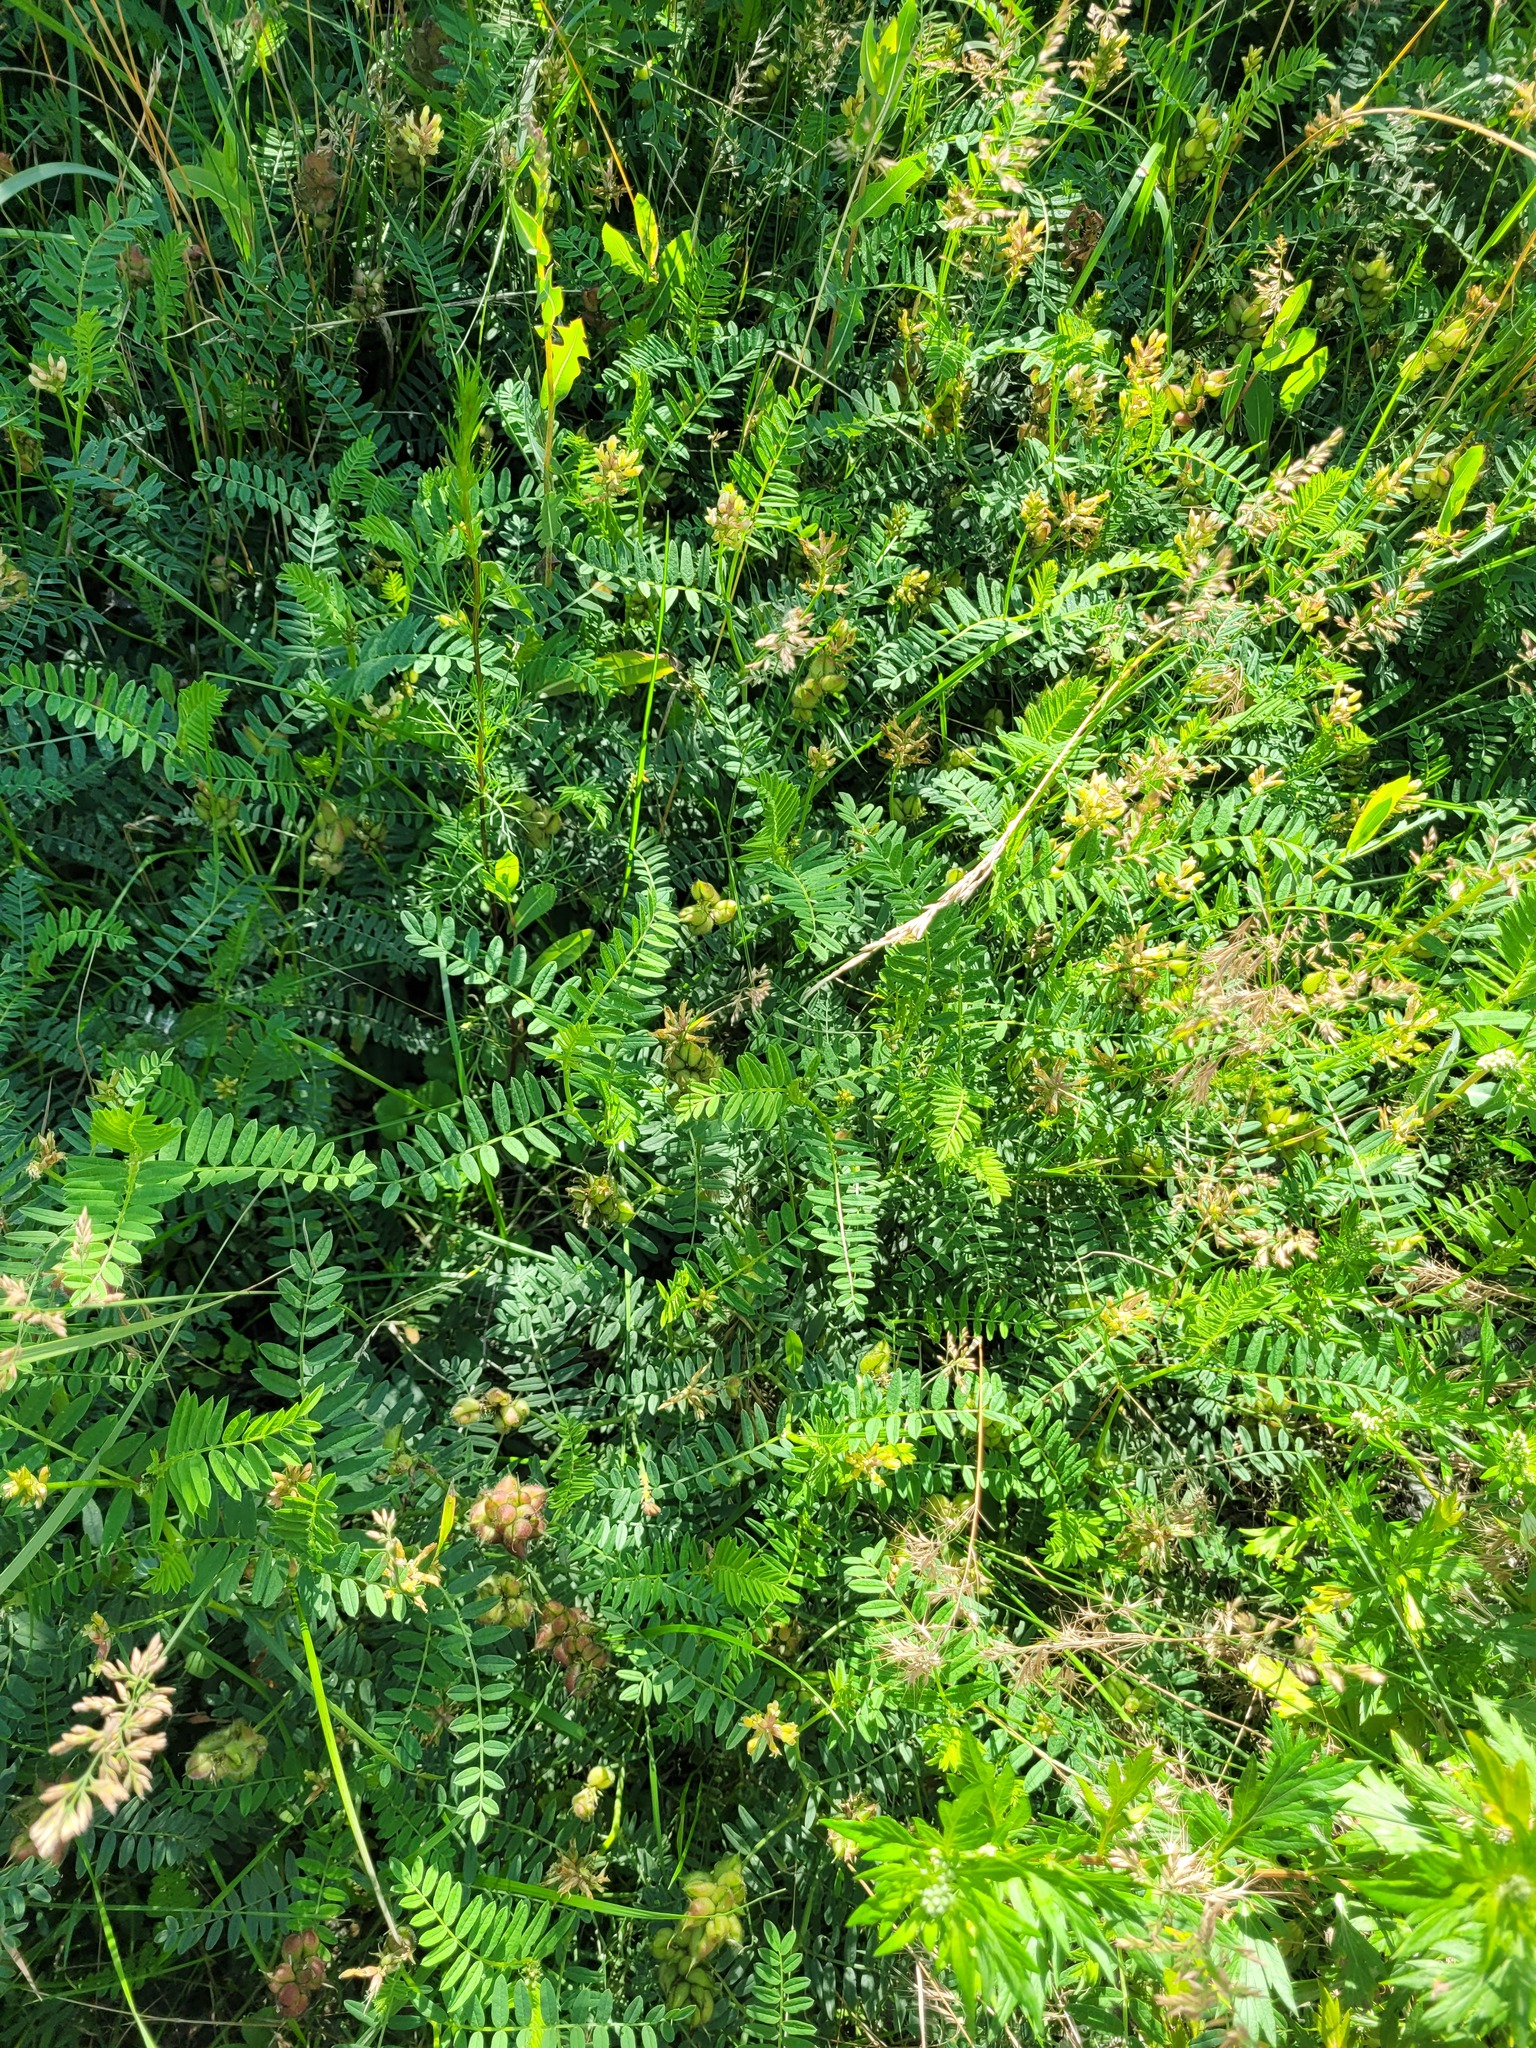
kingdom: Plantae
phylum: Tracheophyta
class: Magnoliopsida
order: Fabales
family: Fabaceae
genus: Astragalus
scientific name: Astragalus cicer
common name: Chick-pea milk-vetch
